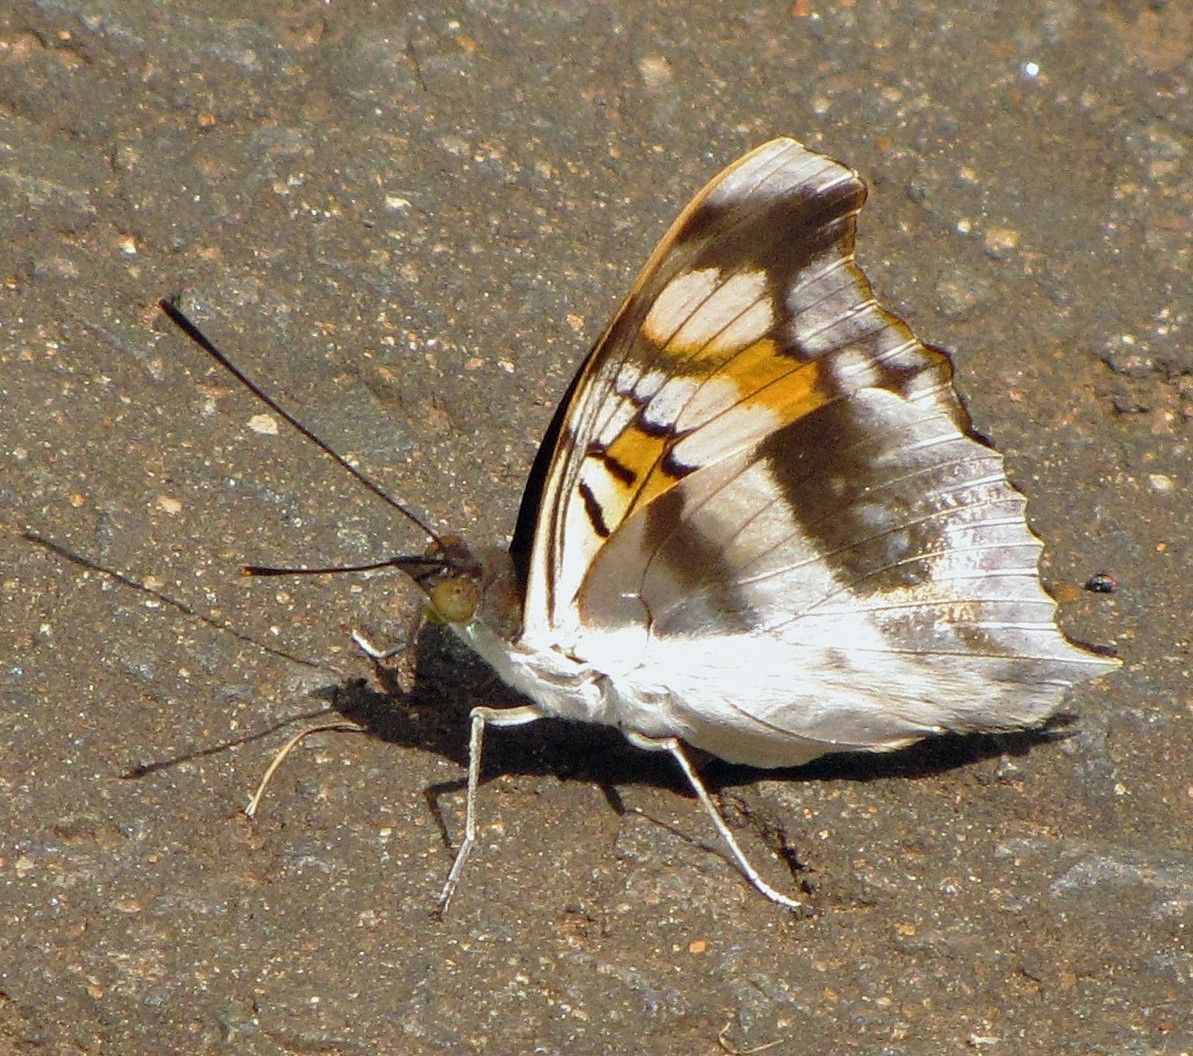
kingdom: Animalia
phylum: Arthropoda
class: Insecta
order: Lepidoptera
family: Nymphalidae
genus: Doxocopa
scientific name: Doxocopa linda
